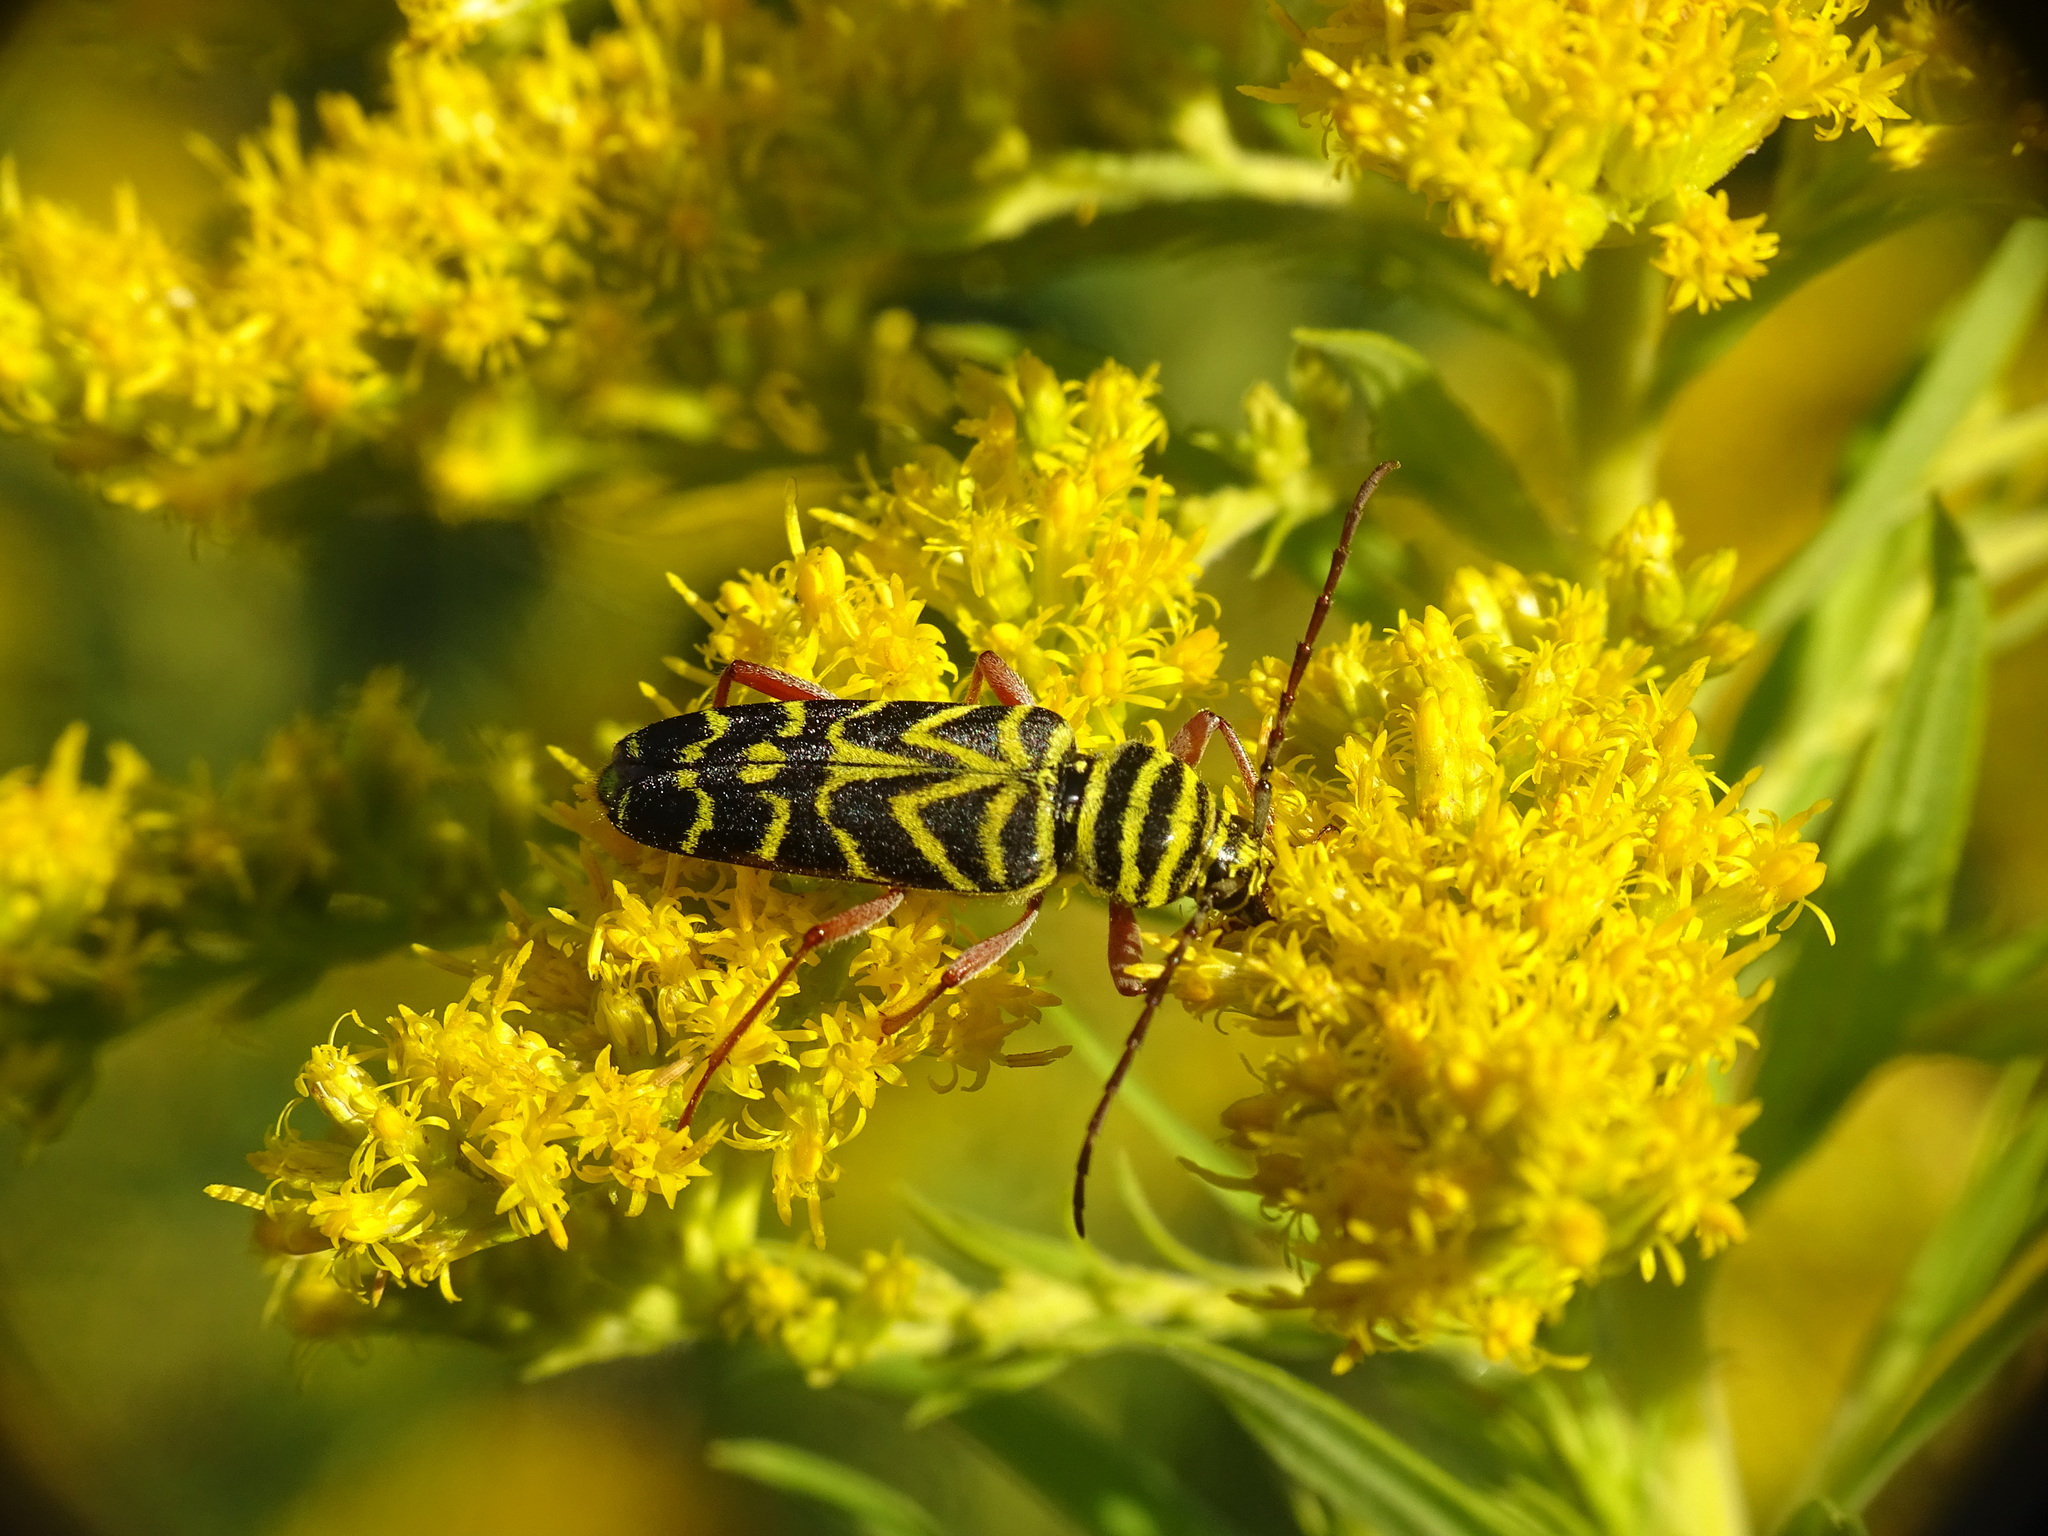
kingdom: Animalia
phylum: Arthropoda
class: Insecta
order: Coleoptera
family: Cerambycidae
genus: Megacyllene
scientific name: Megacyllene robiniae
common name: Locust borer
